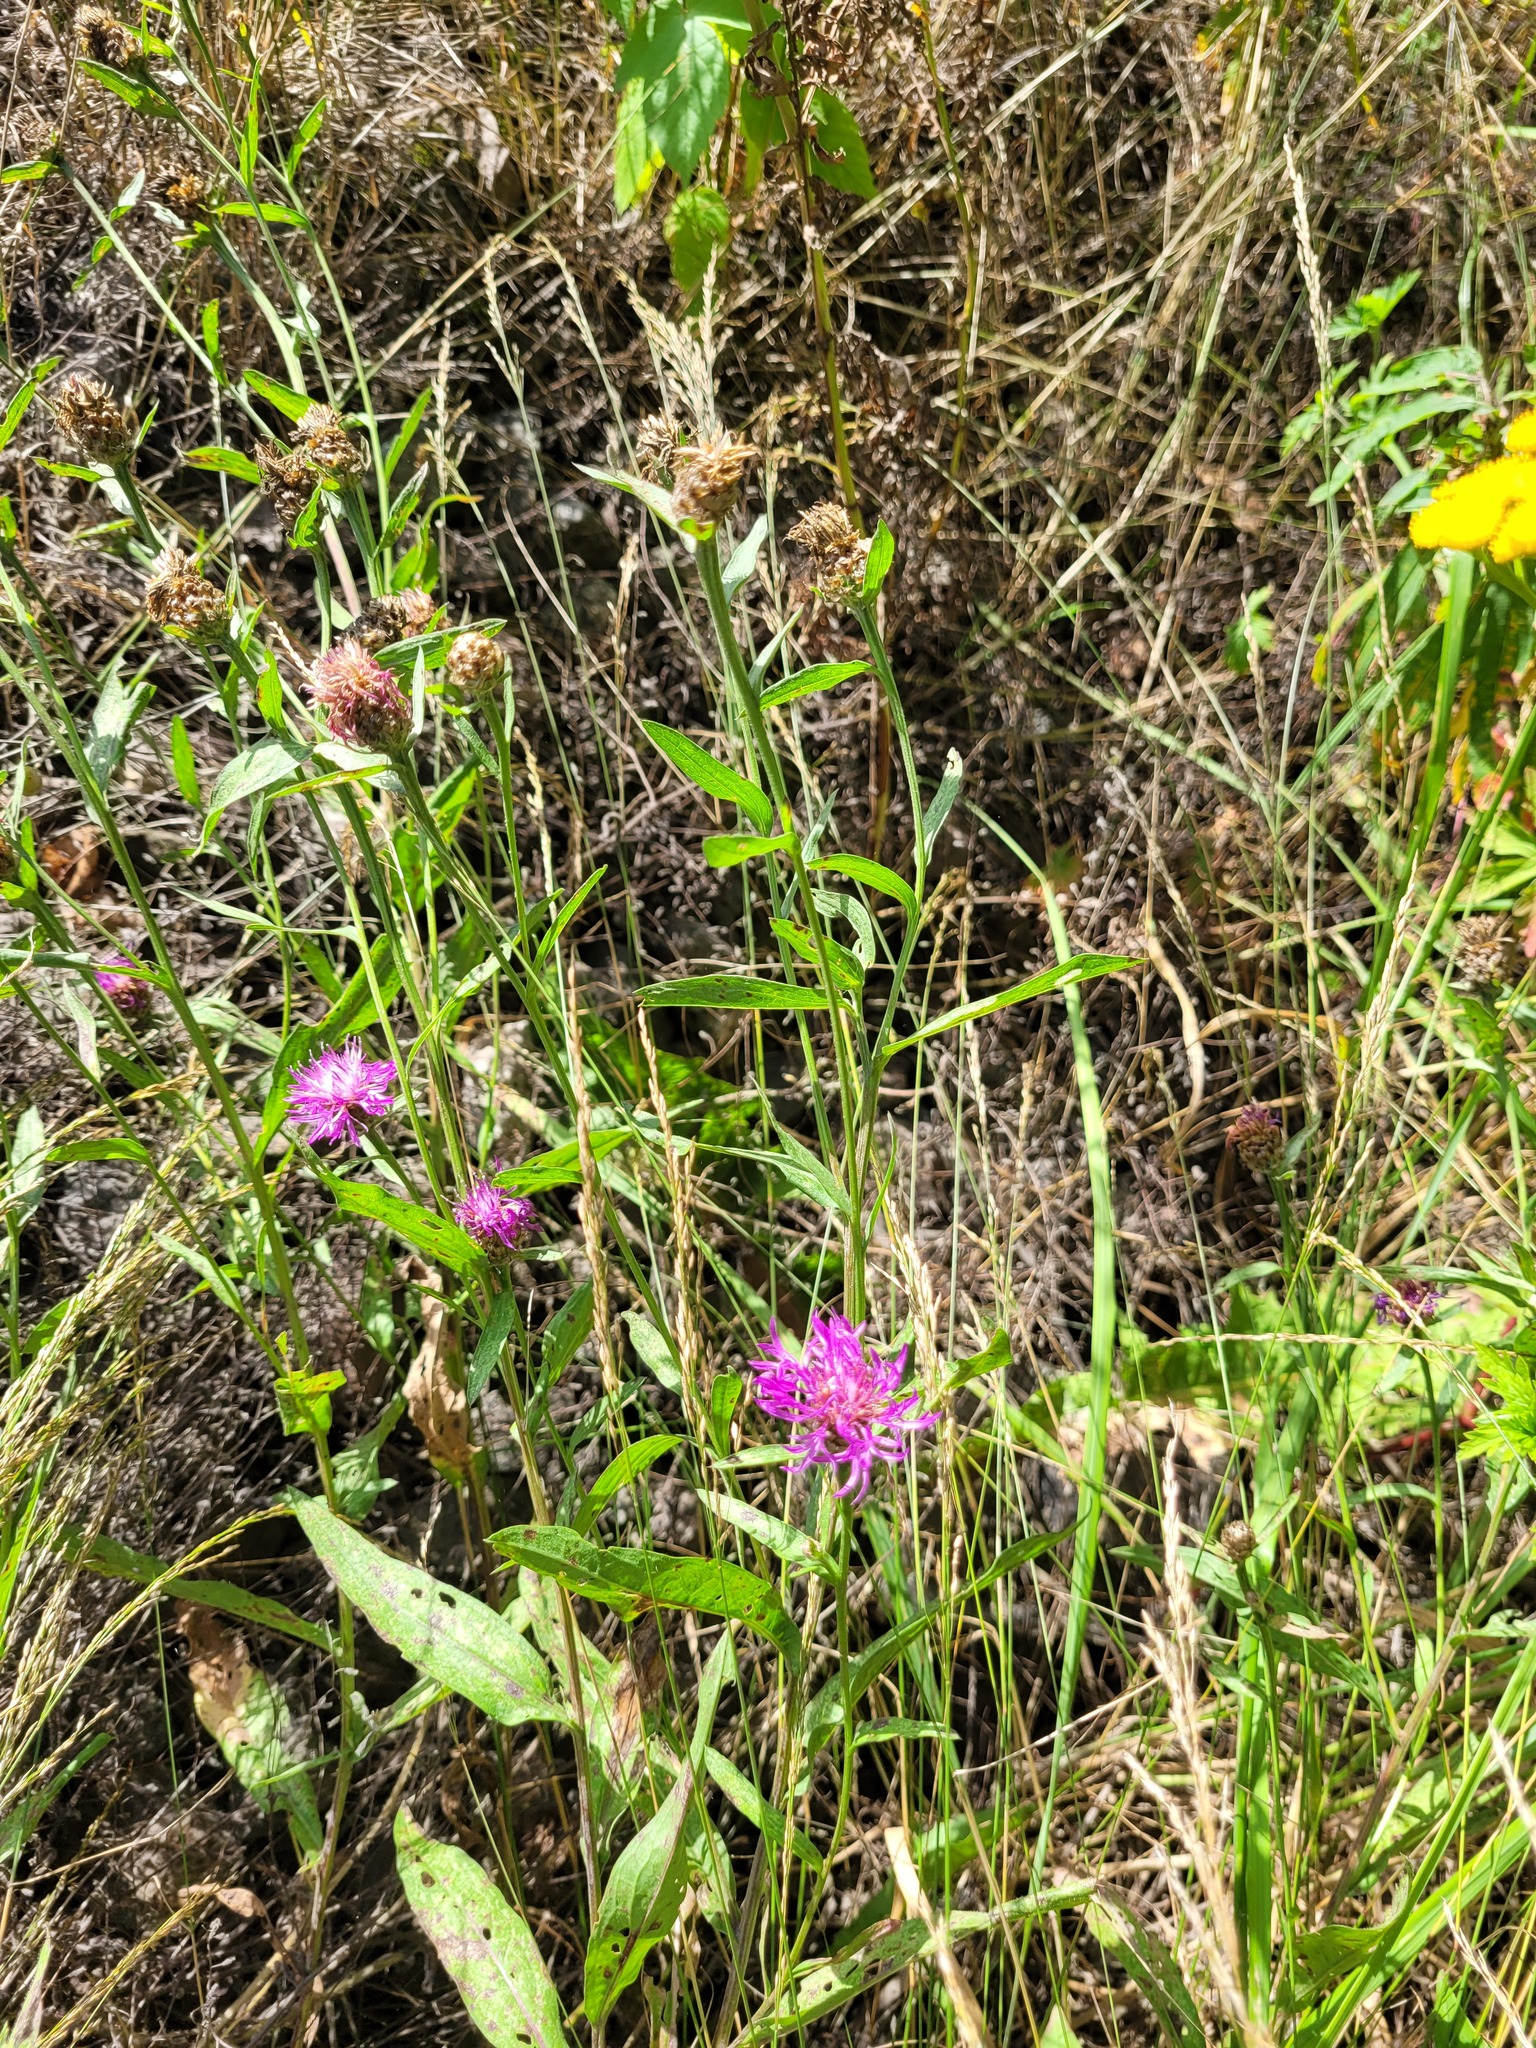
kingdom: Plantae
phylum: Tracheophyta
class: Magnoliopsida
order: Asterales
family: Asteraceae
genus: Centaurea
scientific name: Centaurea jacea
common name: Brown knapweed
